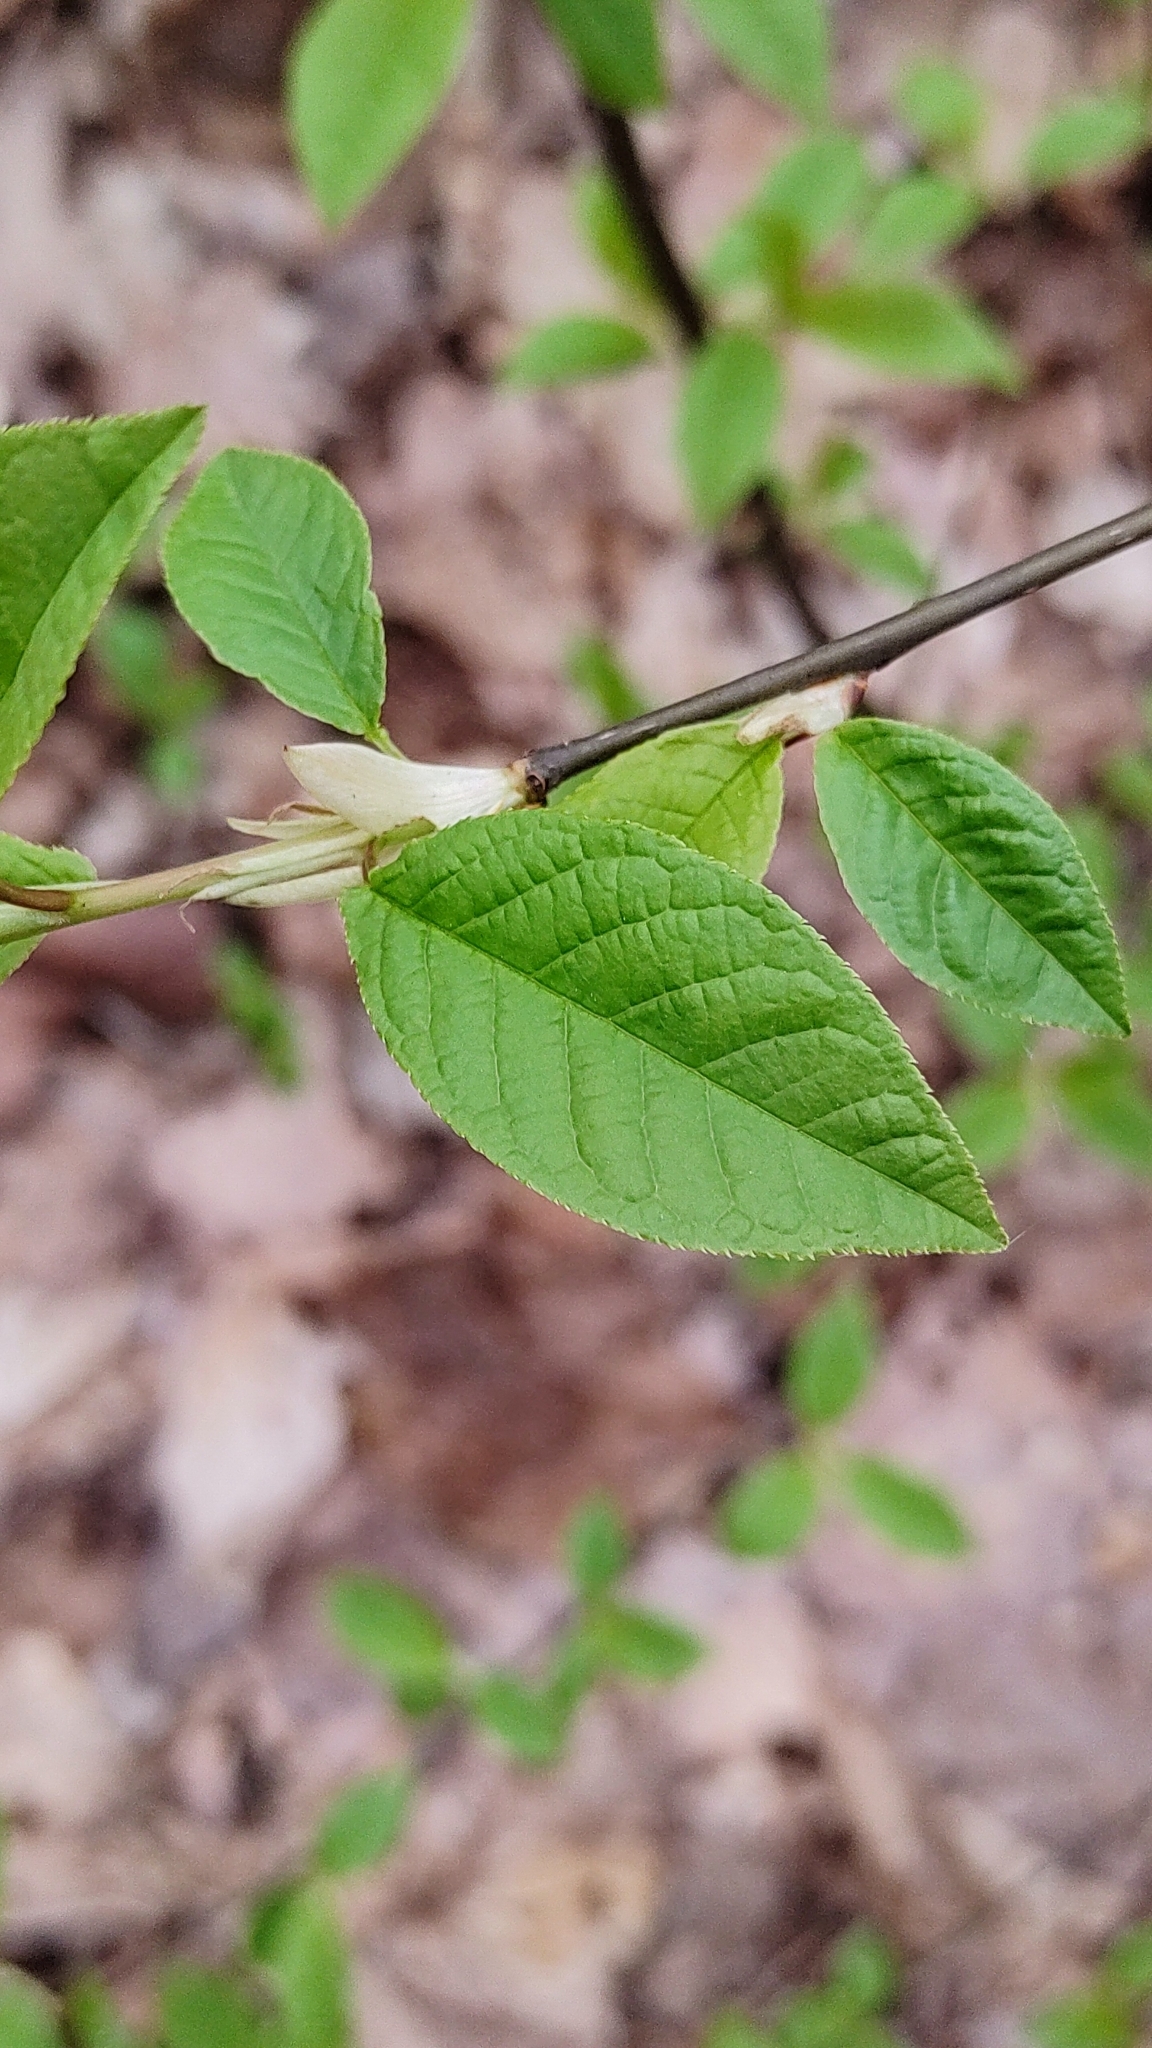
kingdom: Plantae
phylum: Tracheophyta
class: Magnoliopsida
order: Rosales
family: Rosaceae
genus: Prunus
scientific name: Prunus padus
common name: Bird cherry
